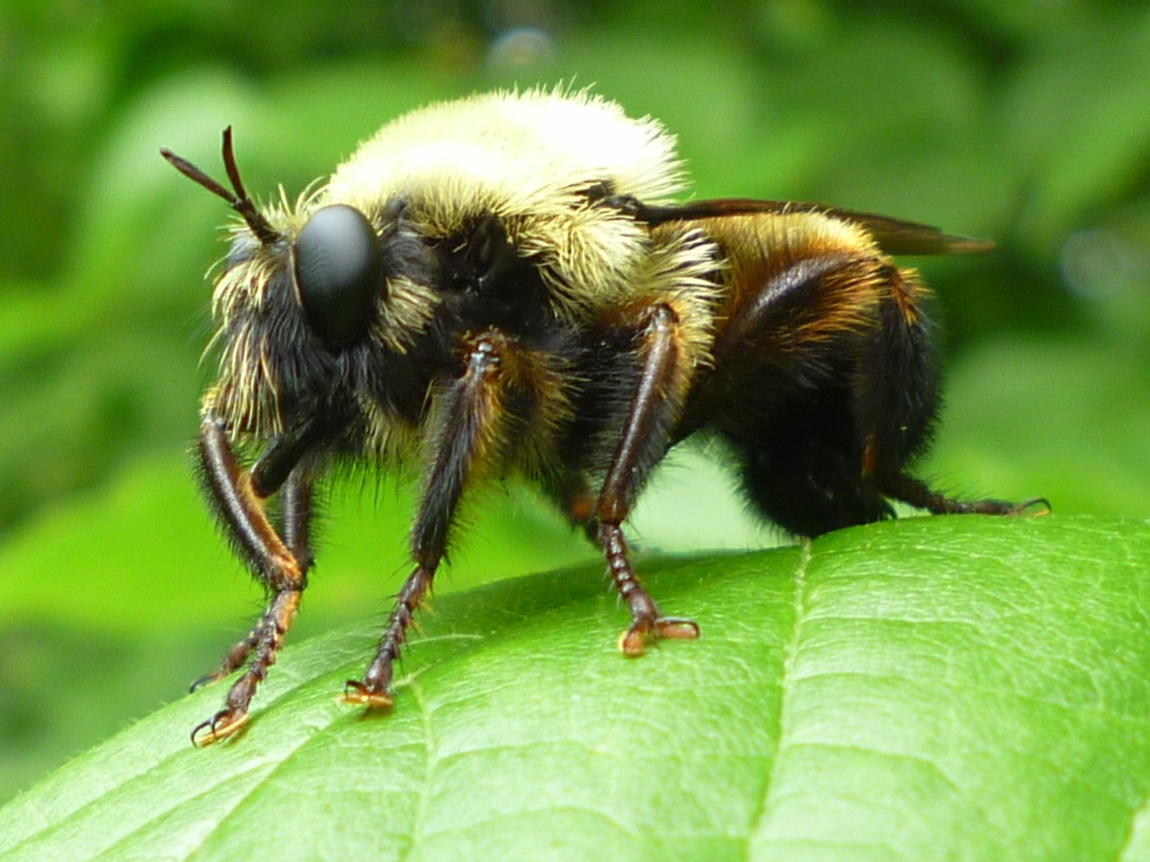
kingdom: Animalia
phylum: Arthropoda
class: Insecta
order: Diptera
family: Asilidae
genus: Laphria
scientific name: Laphria thoracica
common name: Bumble bee mimic robber fly
